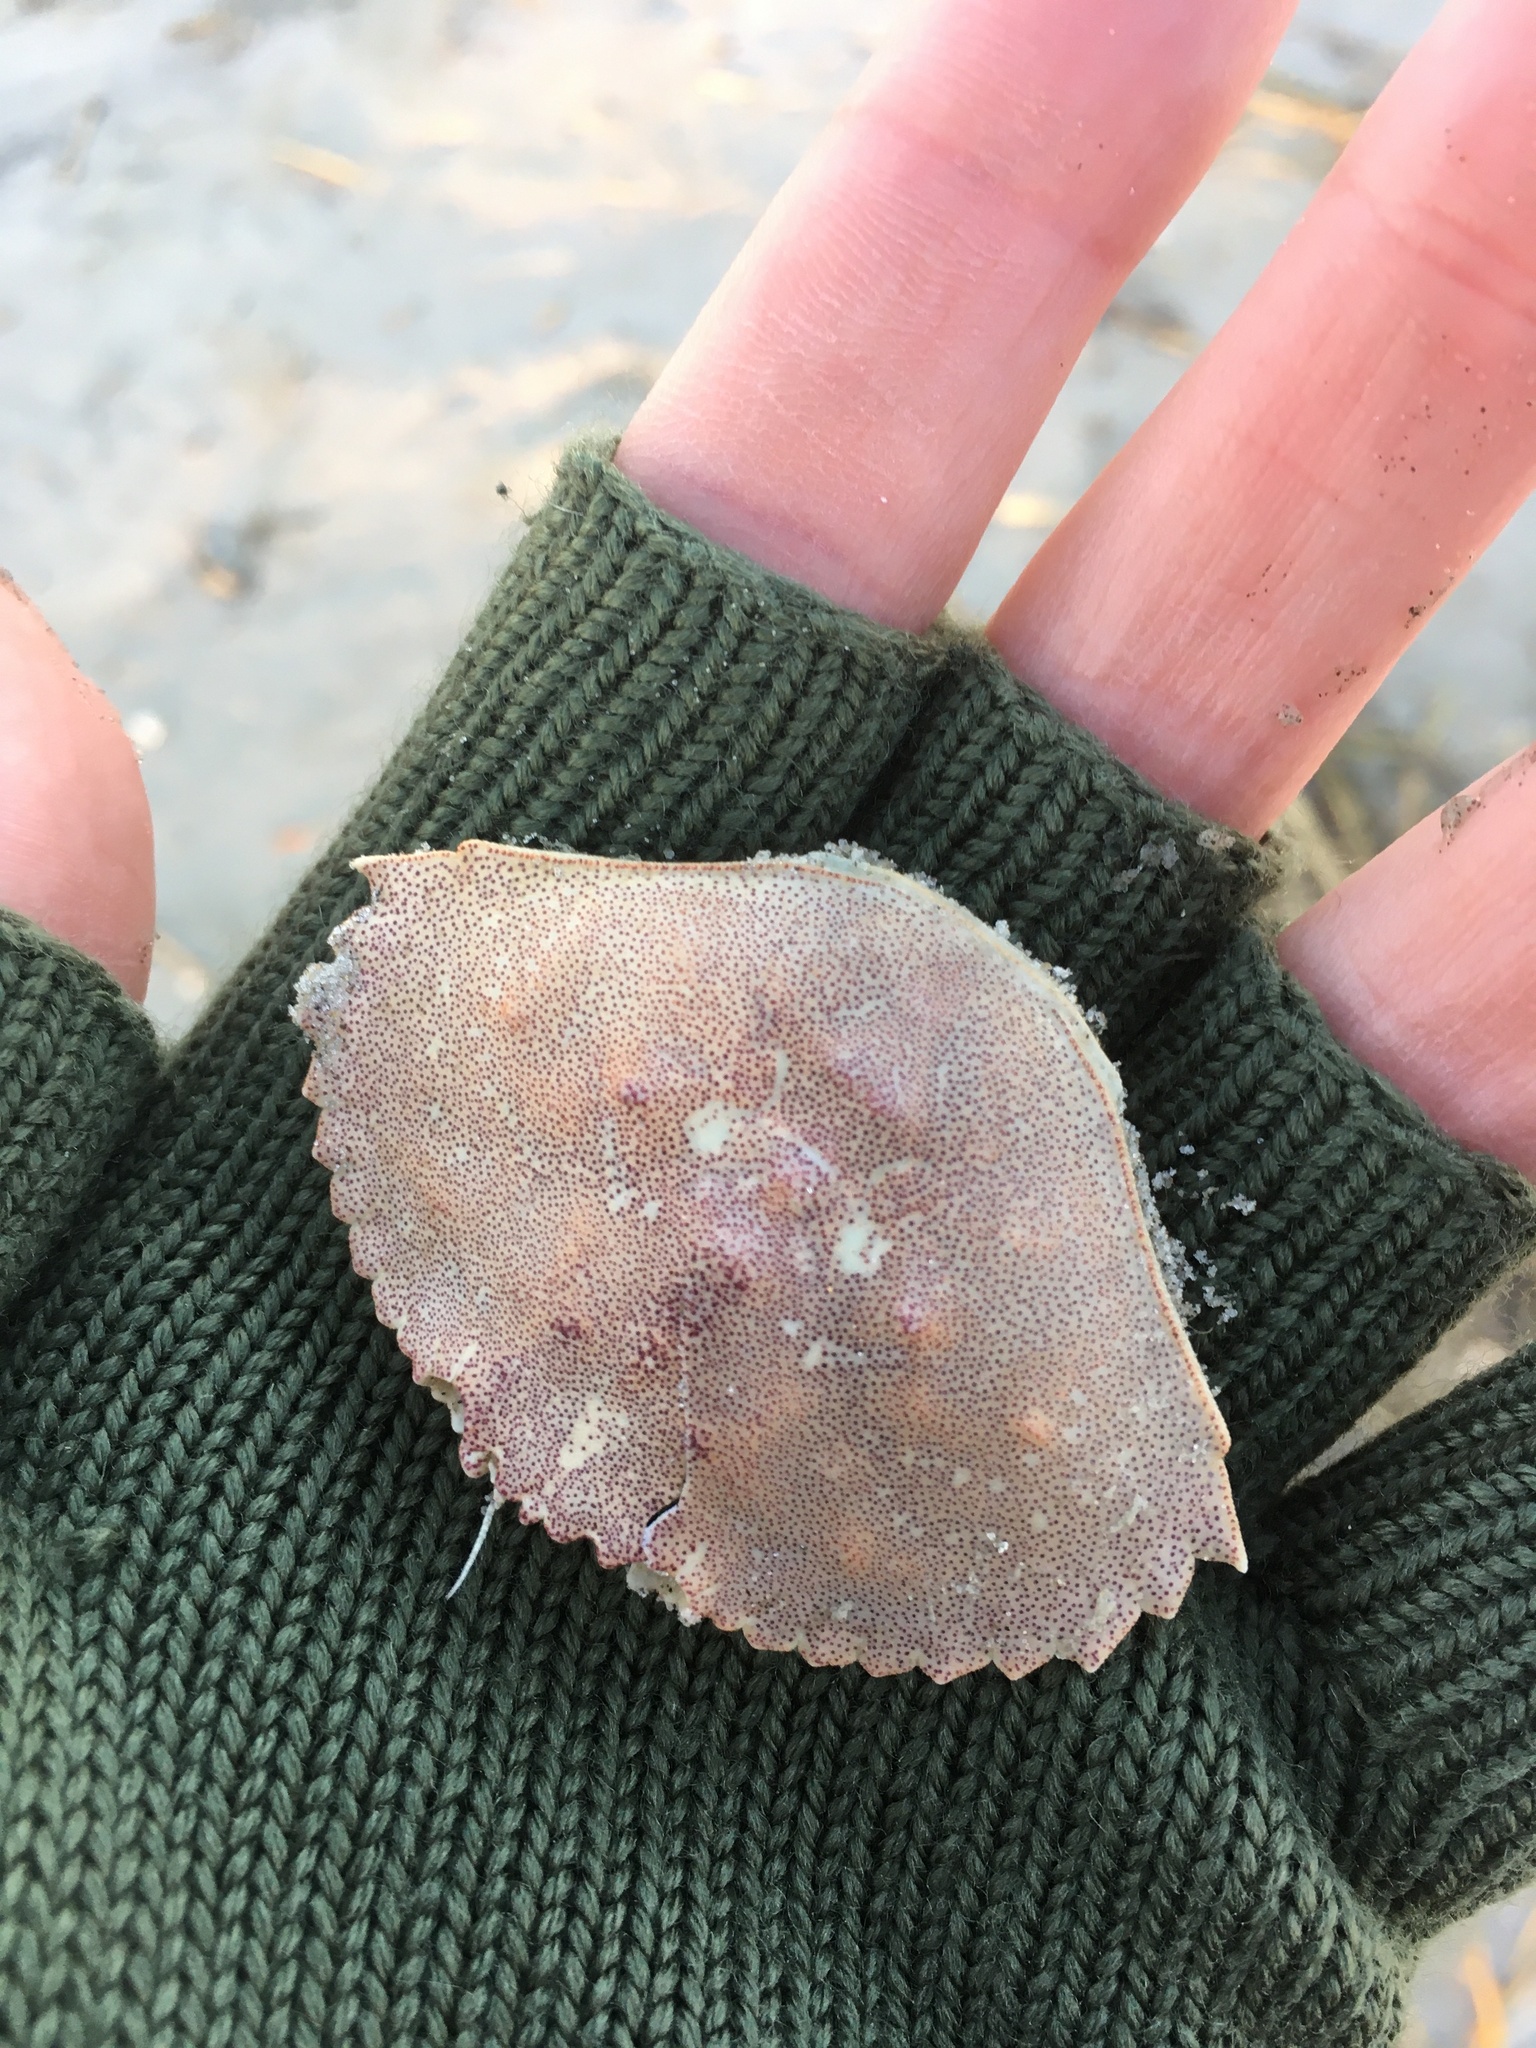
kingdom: Animalia
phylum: Arthropoda
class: Malacostraca
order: Decapoda
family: Cancridae
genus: Cancer
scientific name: Cancer irroratus
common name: Atlantic rock crab
